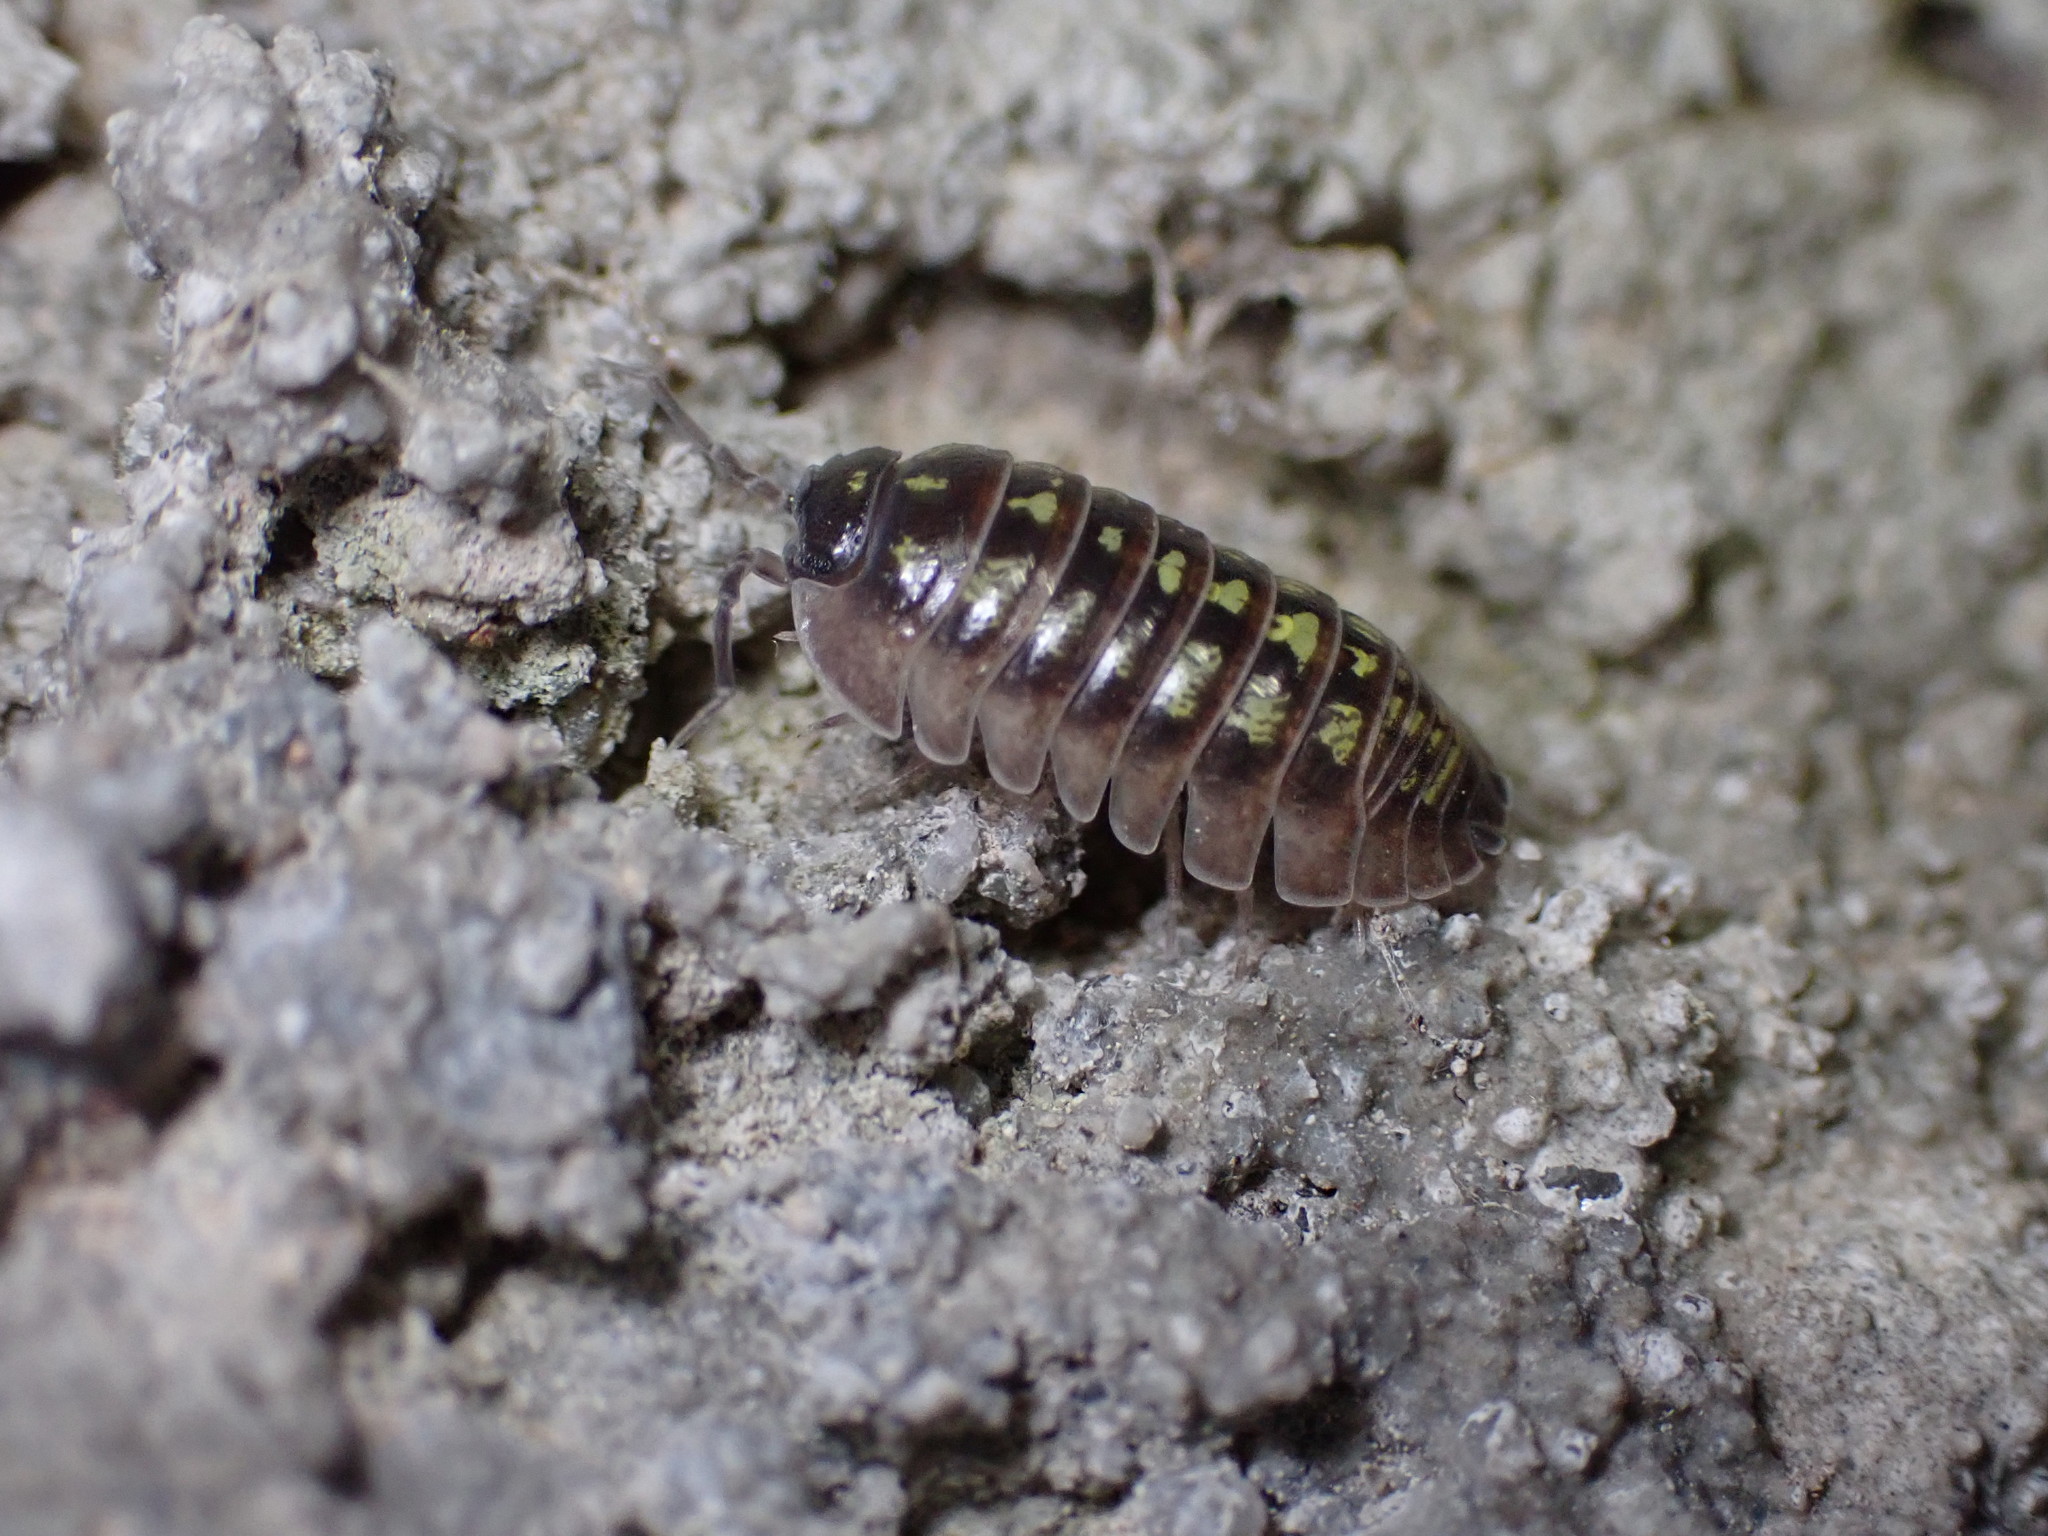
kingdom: Animalia
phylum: Arthropoda
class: Malacostraca
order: Isopoda
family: Armadillidiidae
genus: Armadillidium
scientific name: Armadillidium depressum
